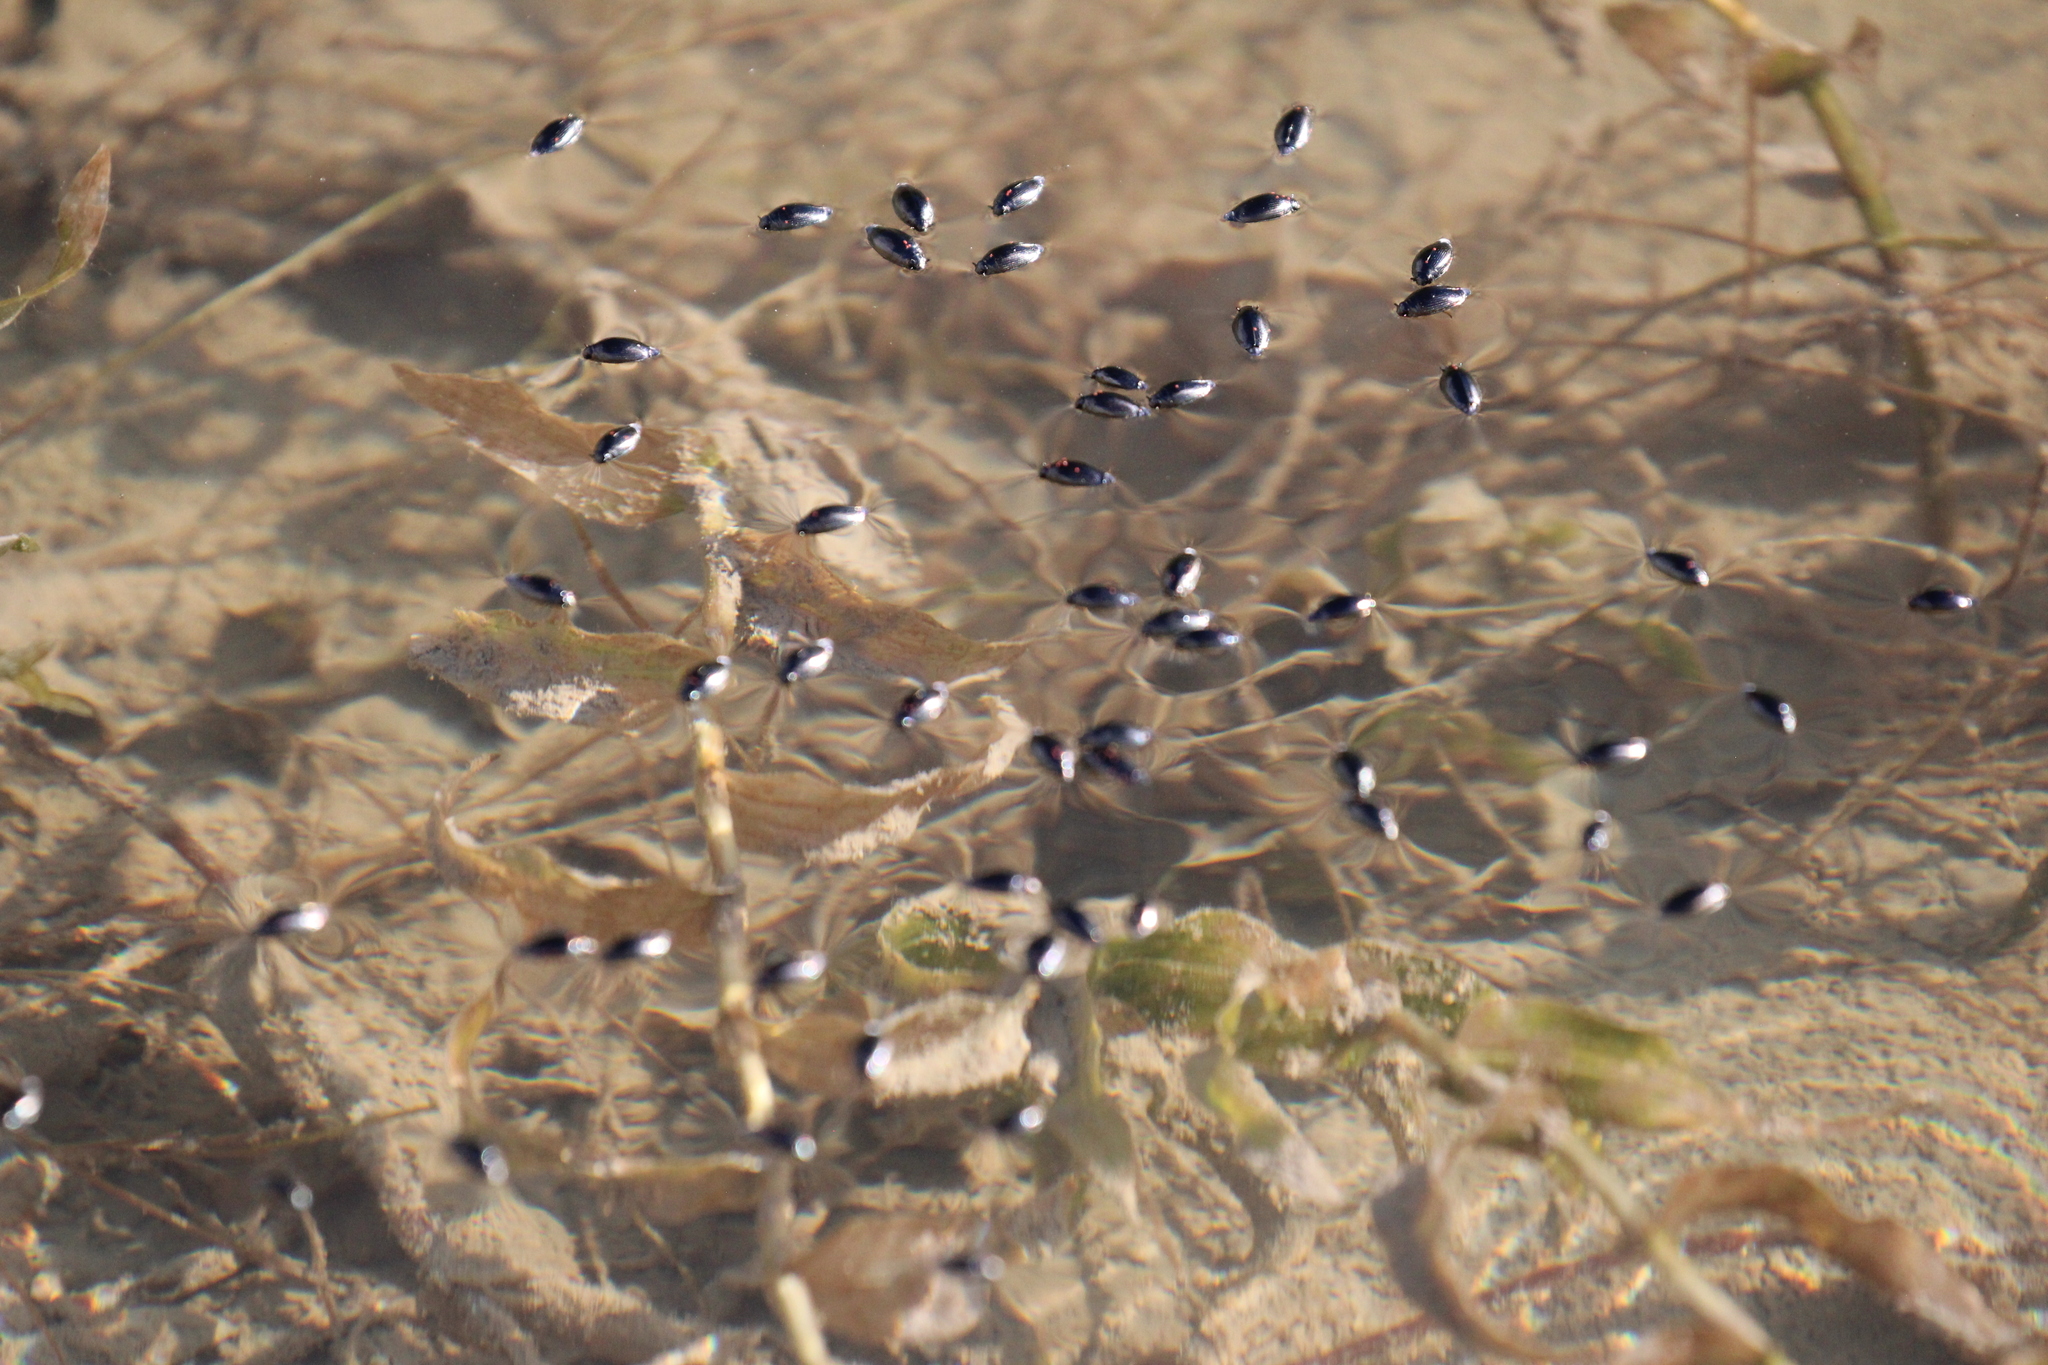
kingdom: Animalia
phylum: Arthropoda
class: Insecta
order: Coleoptera
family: Gyrinidae
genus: Gyrinus
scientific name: Gyrinus
